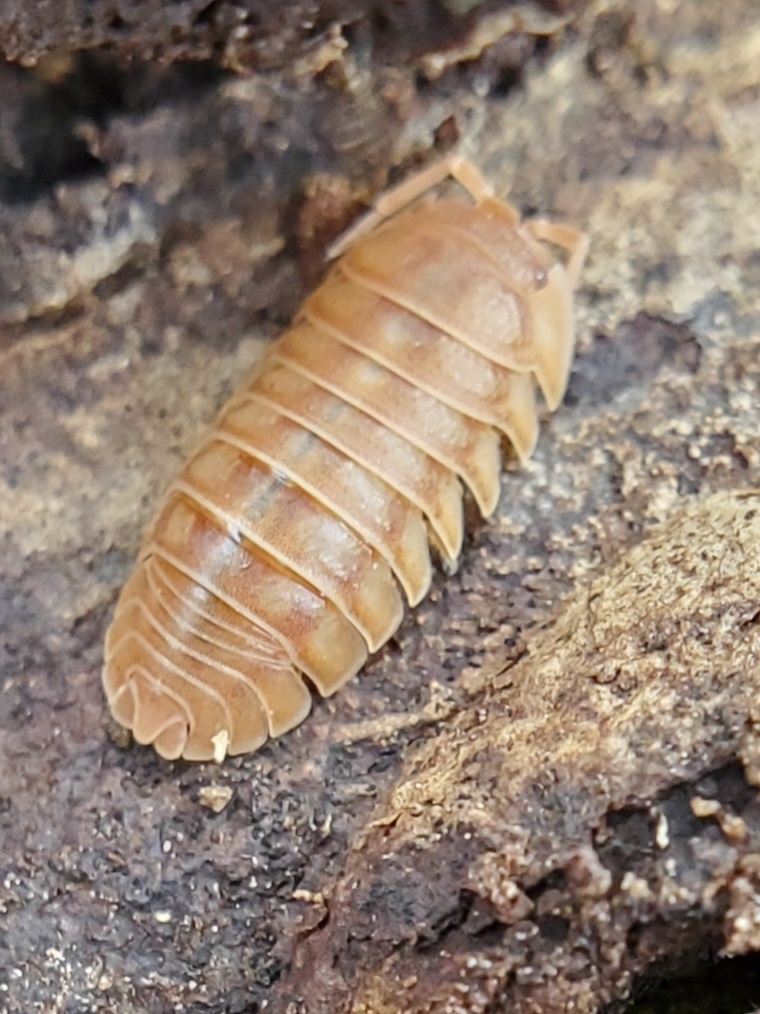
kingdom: Animalia
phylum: Arthropoda
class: Malacostraca
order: Isopoda
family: Armadillidiidae
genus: Armadillidium
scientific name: Armadillidium nasatum
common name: Isopod
